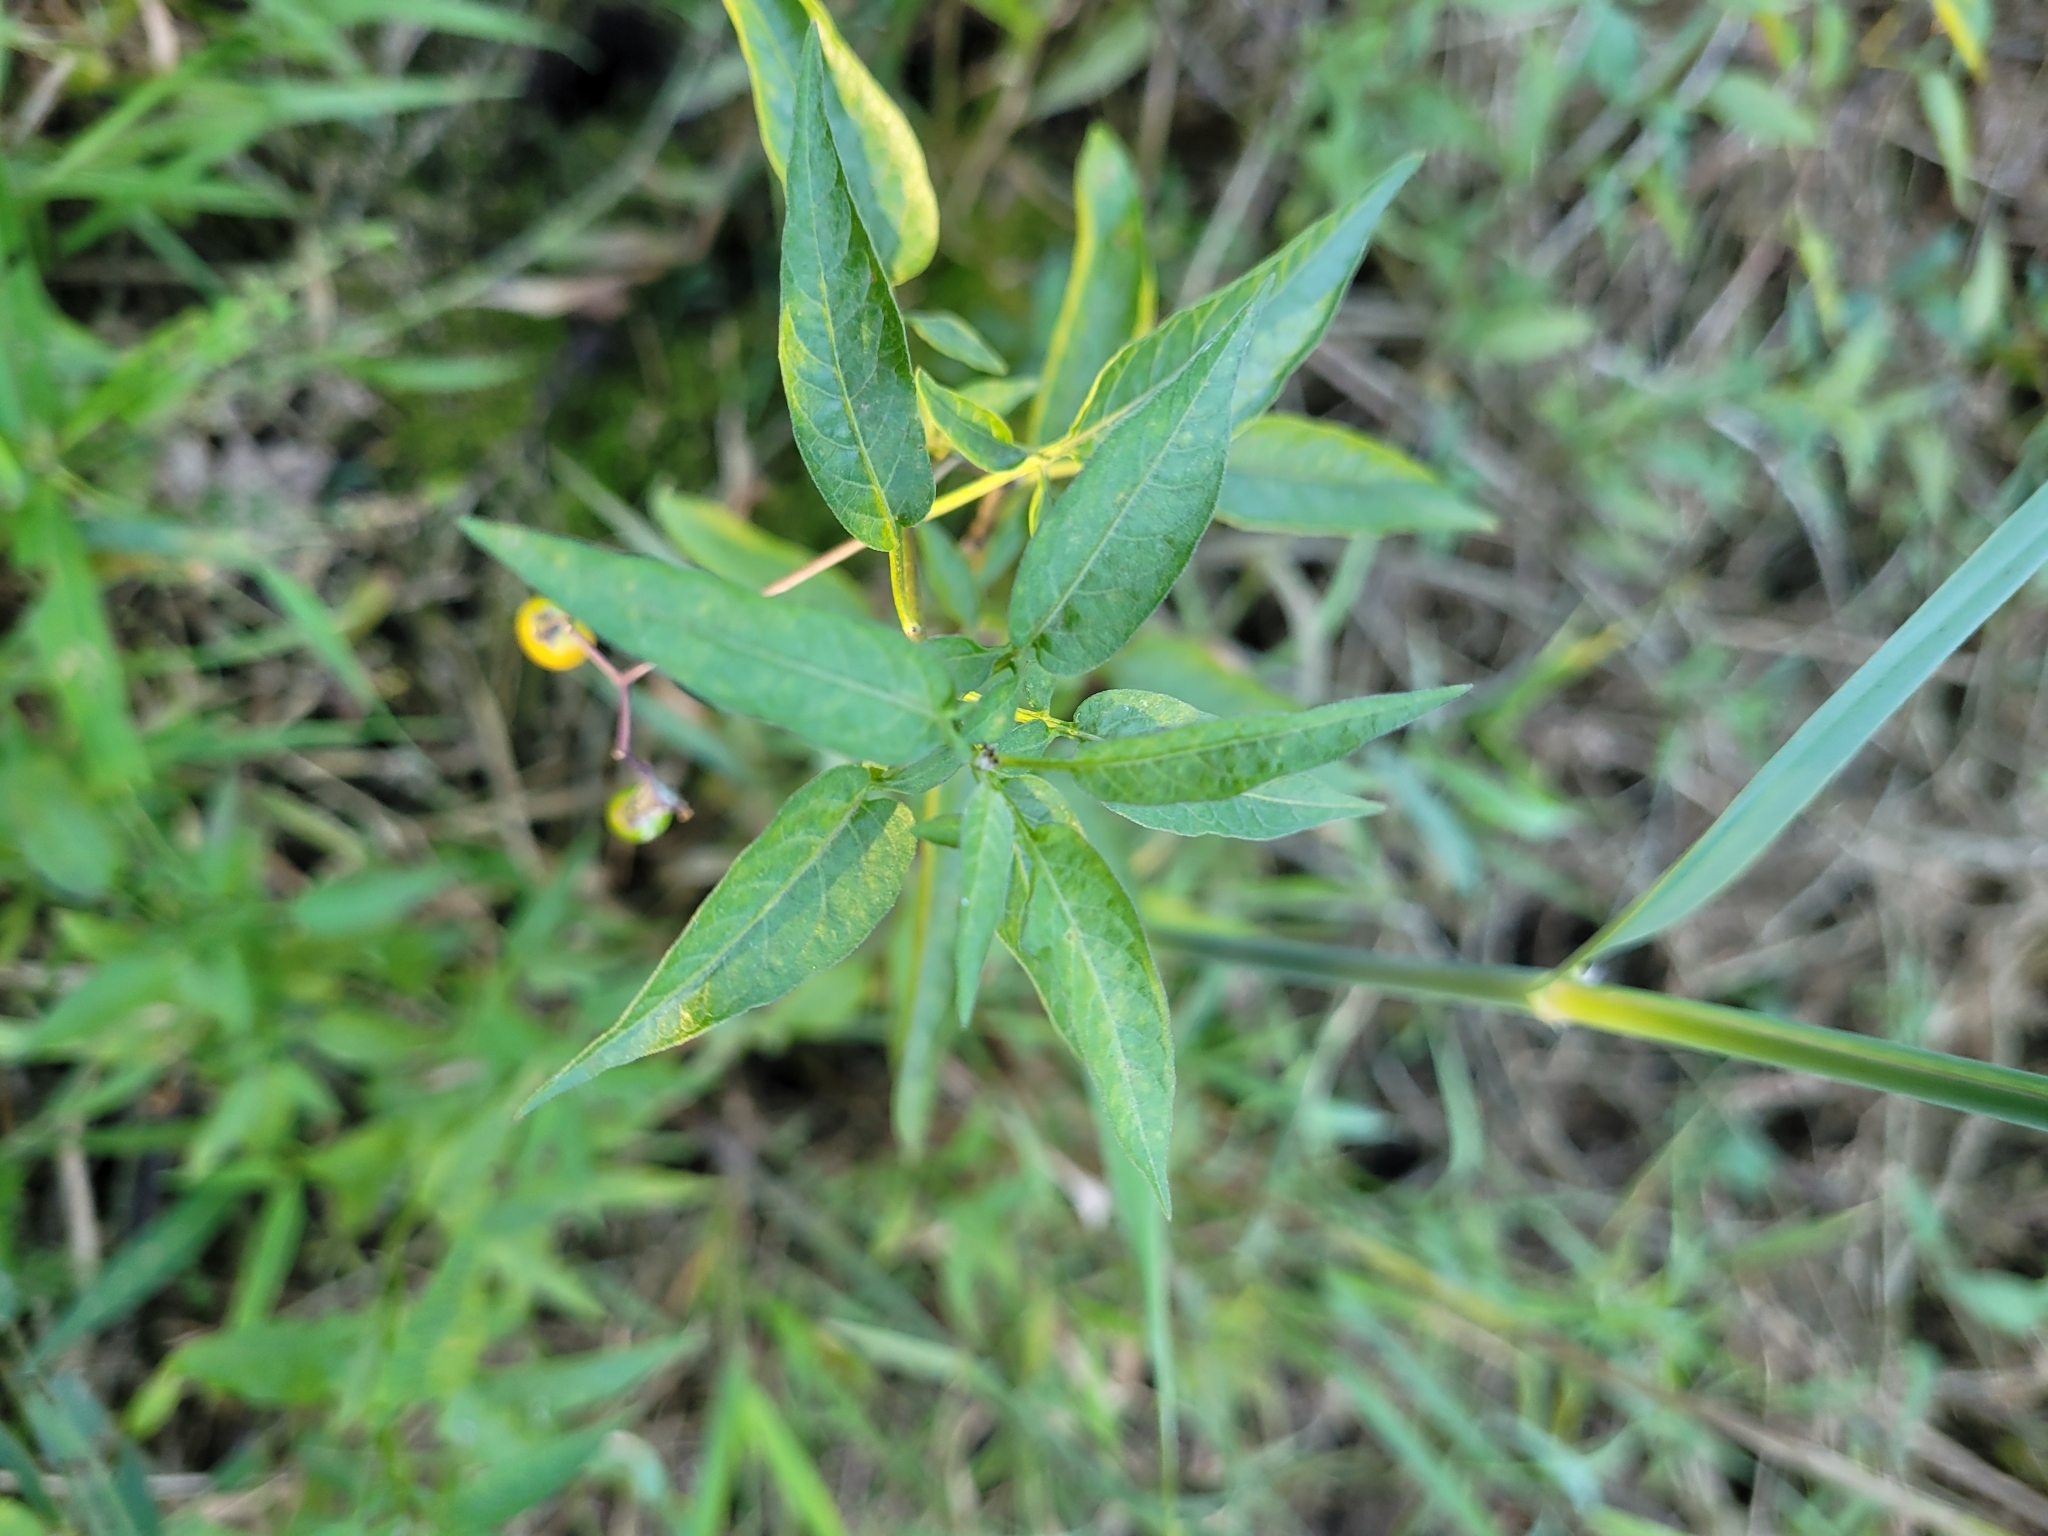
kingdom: Plantae
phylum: Tracheophyta
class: Magnoliopsida
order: Solanales
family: Solanaceae
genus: Solanum
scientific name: Solanum dulcamara
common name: Climbing nightshade
